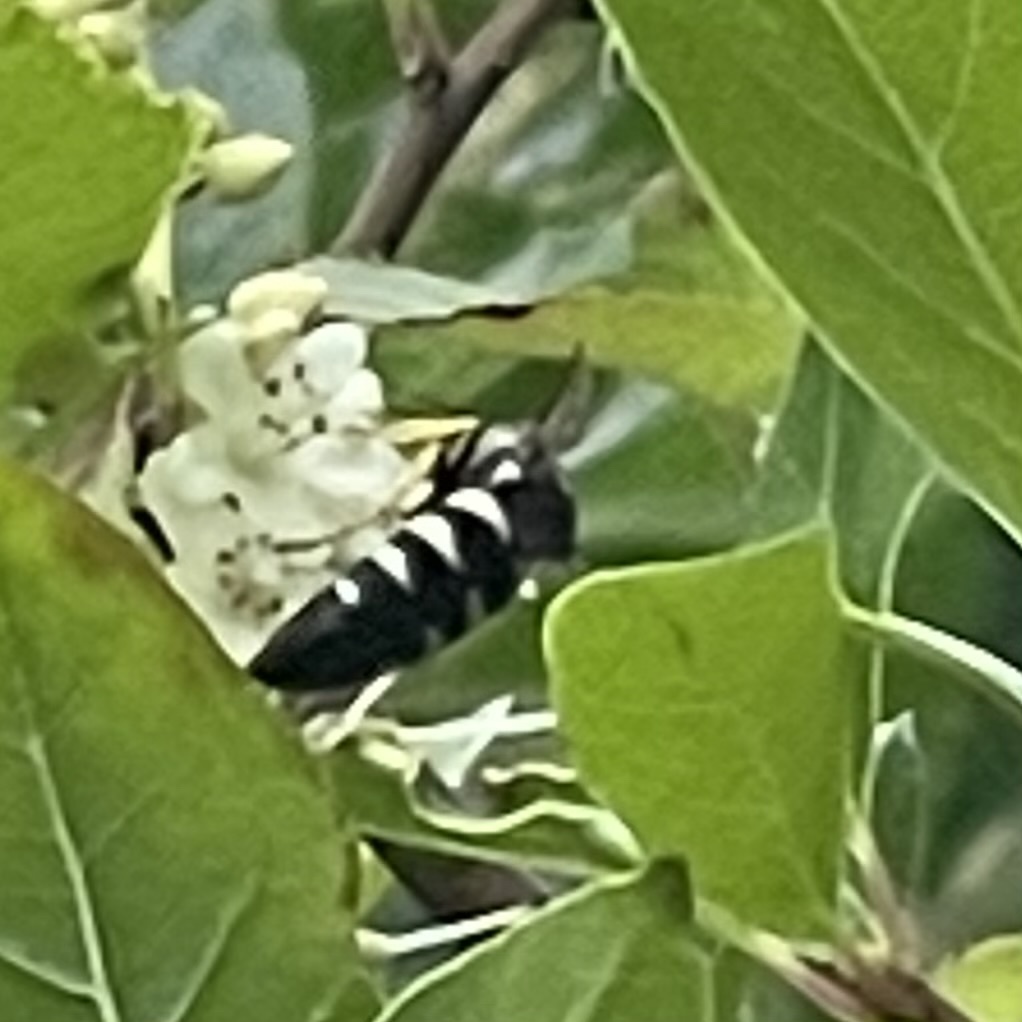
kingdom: Animalia
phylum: Arthropoda
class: Insecta
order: Hymenoptera
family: Crabronidae
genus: Bicyrtes
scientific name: Bicyrtes quadrifasciatus
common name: Four-banded stink bug hunter wasp
